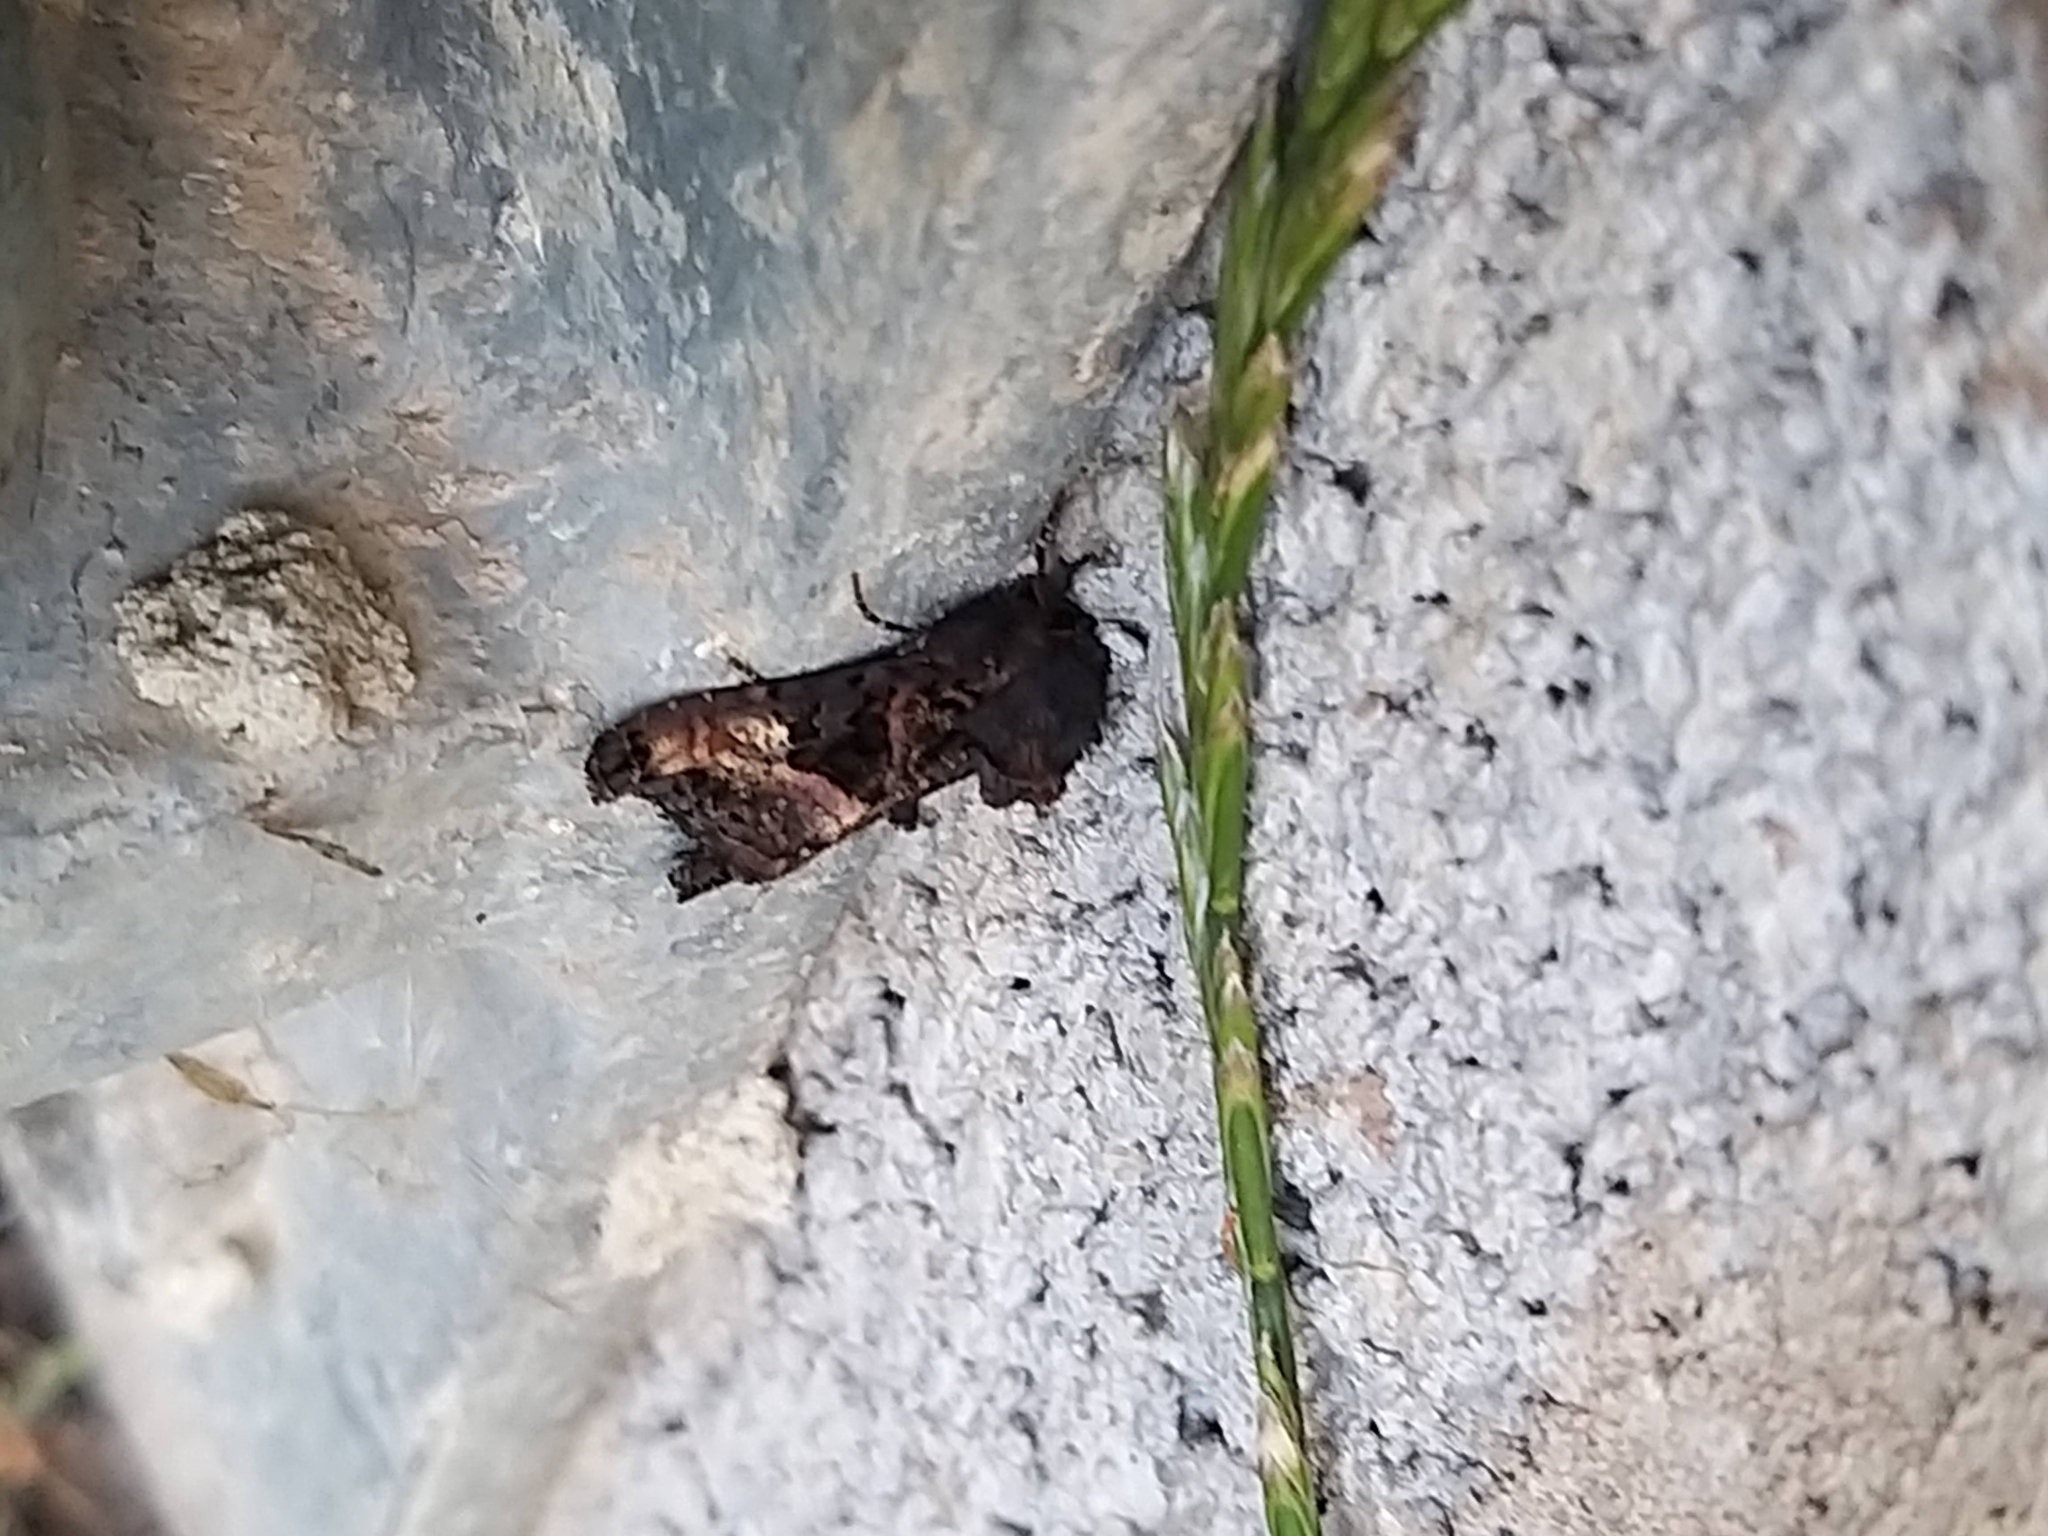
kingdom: Animalia
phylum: Arthropoda
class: Insecta
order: Lepidoptera
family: Noctuidae
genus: Euplexia
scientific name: Euplexia lucipara
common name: Small angle shades
